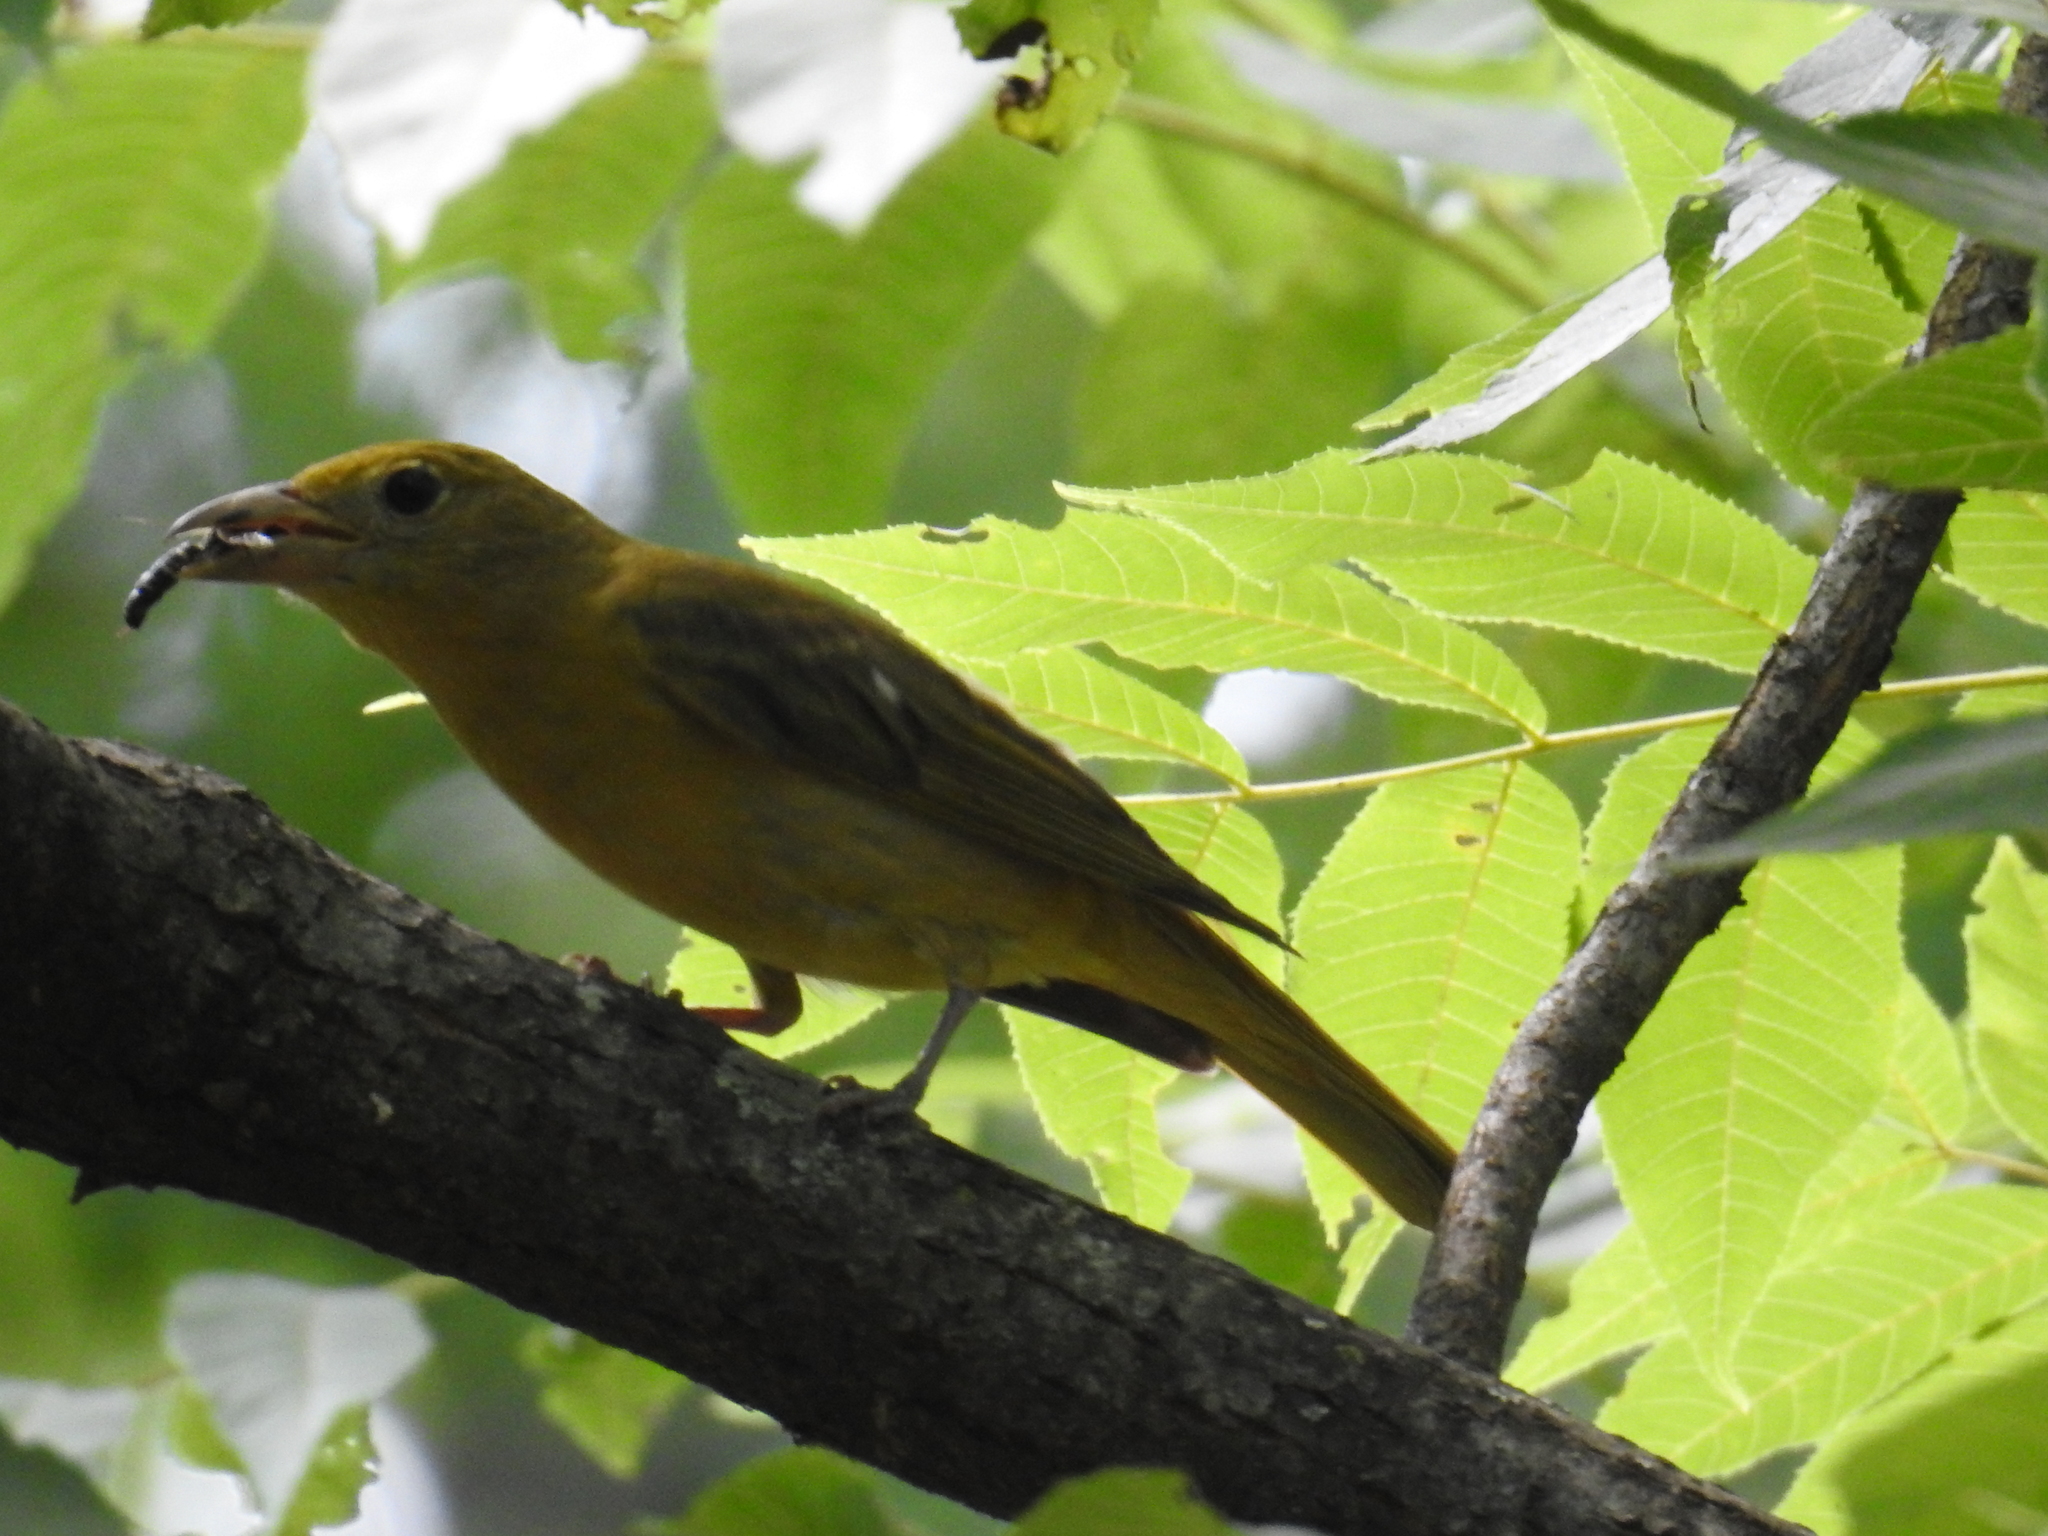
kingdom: Animalia
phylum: Chordata
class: Aves
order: Passeriformes
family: Cardinalidae
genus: Piranga
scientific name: Piranga rubra
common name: Summer tanager
